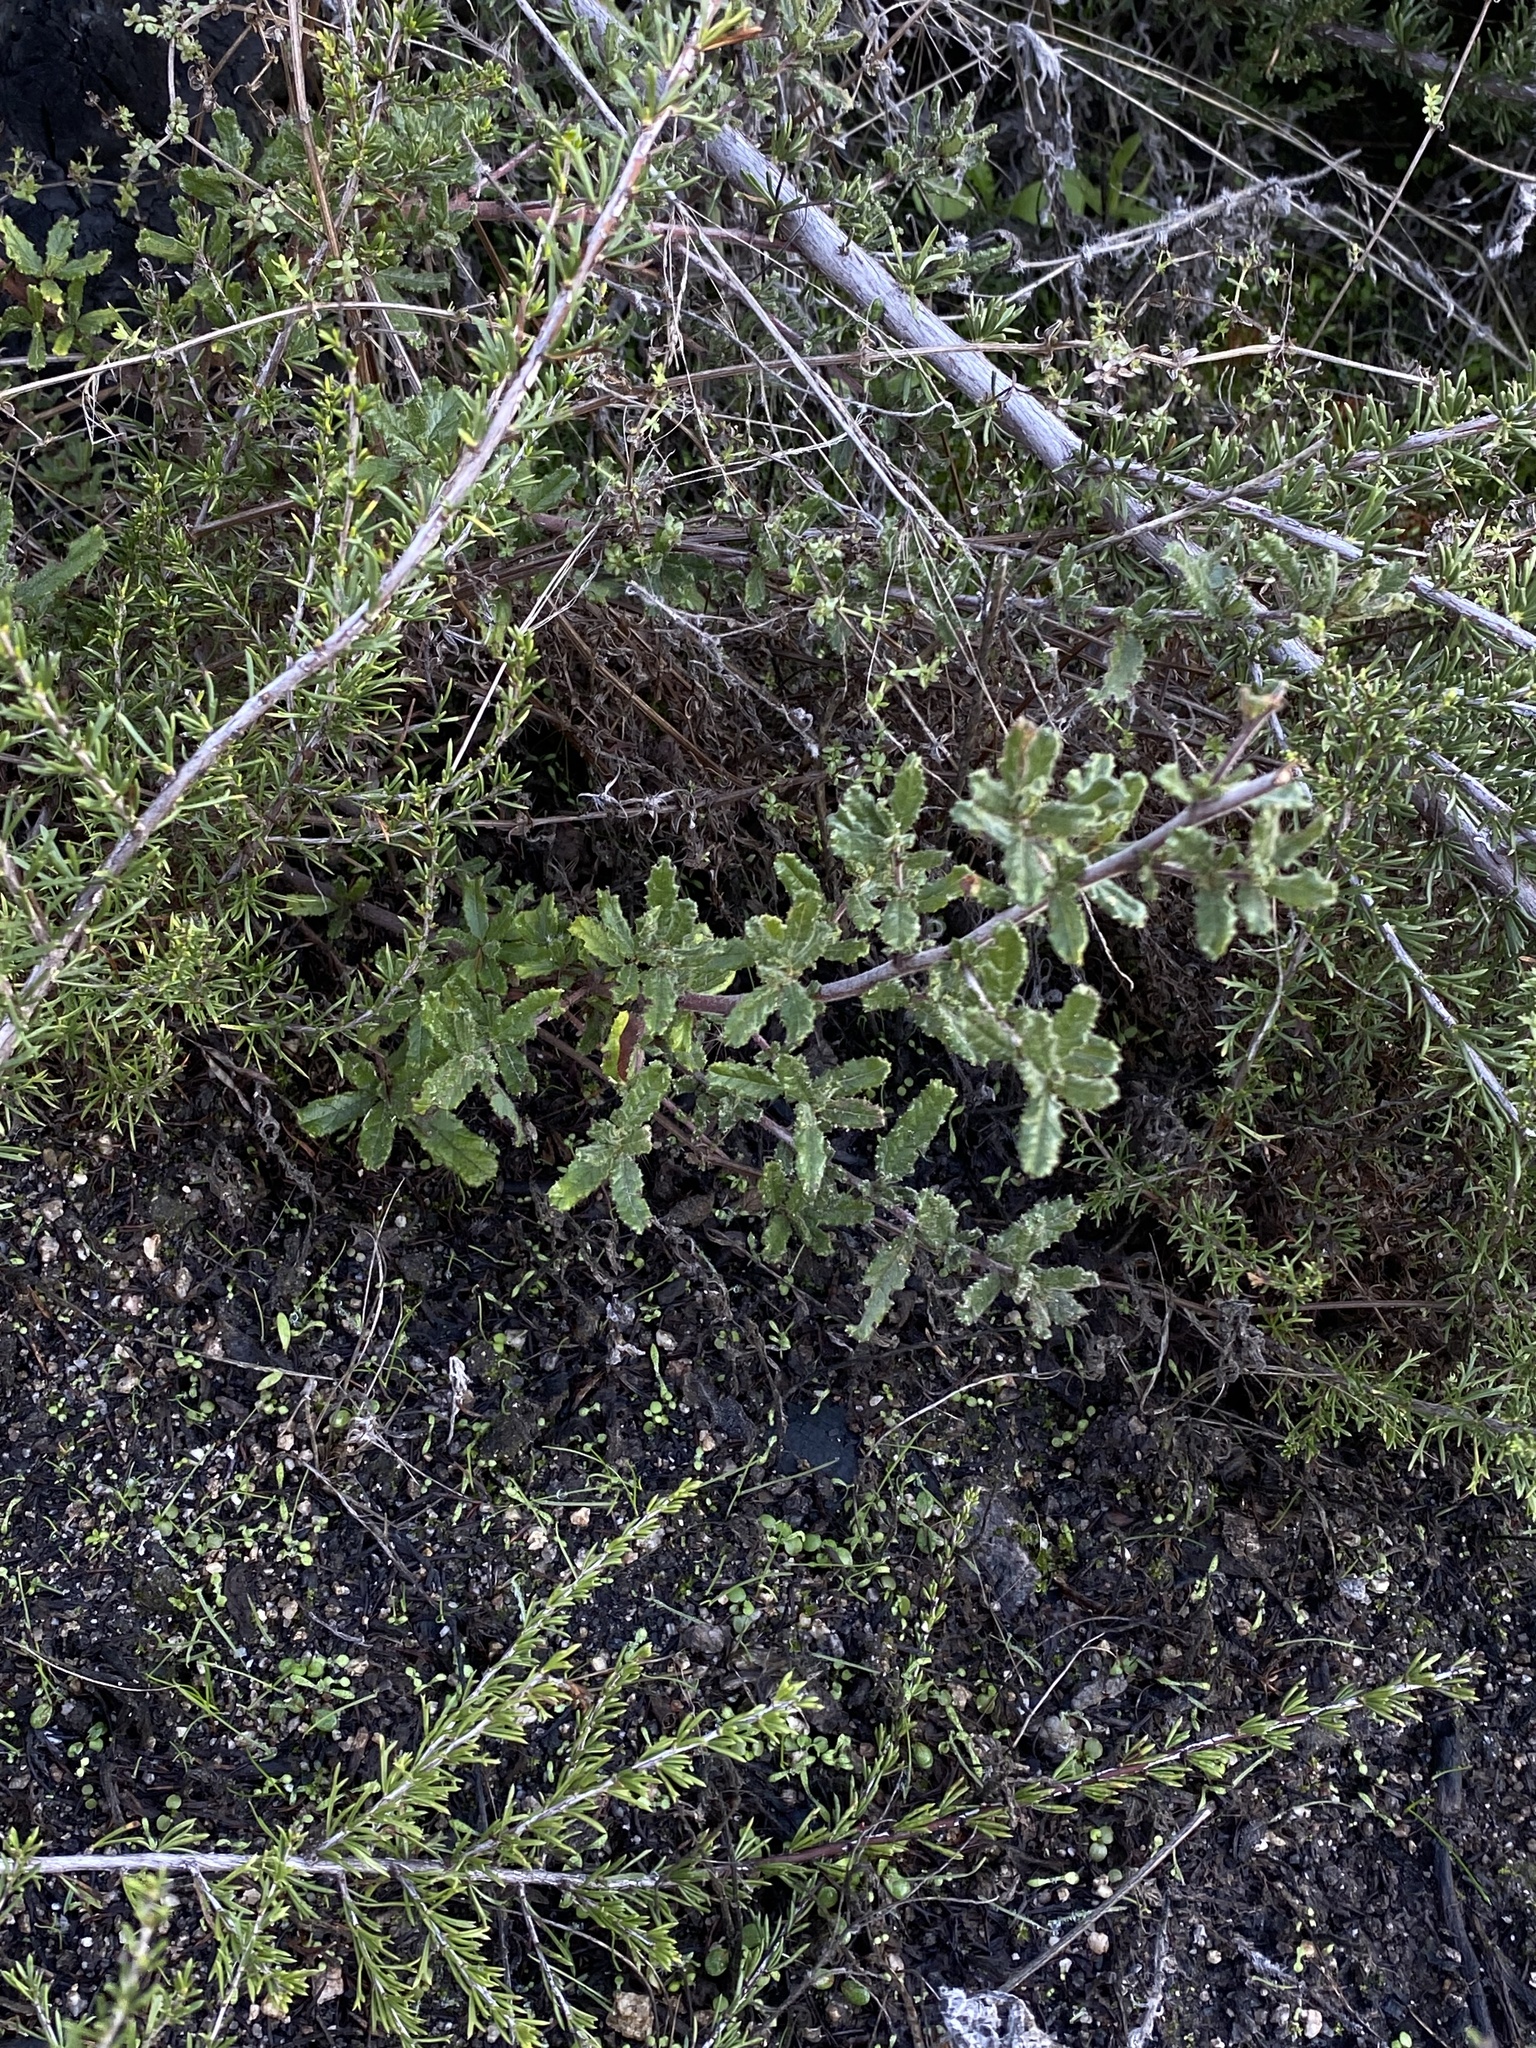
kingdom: Plantae
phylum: Tracheophyta
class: Magnoliopsida
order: Rosales
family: Rhamnaceae
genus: Ceanothus
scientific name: Ceanothus papillosus
